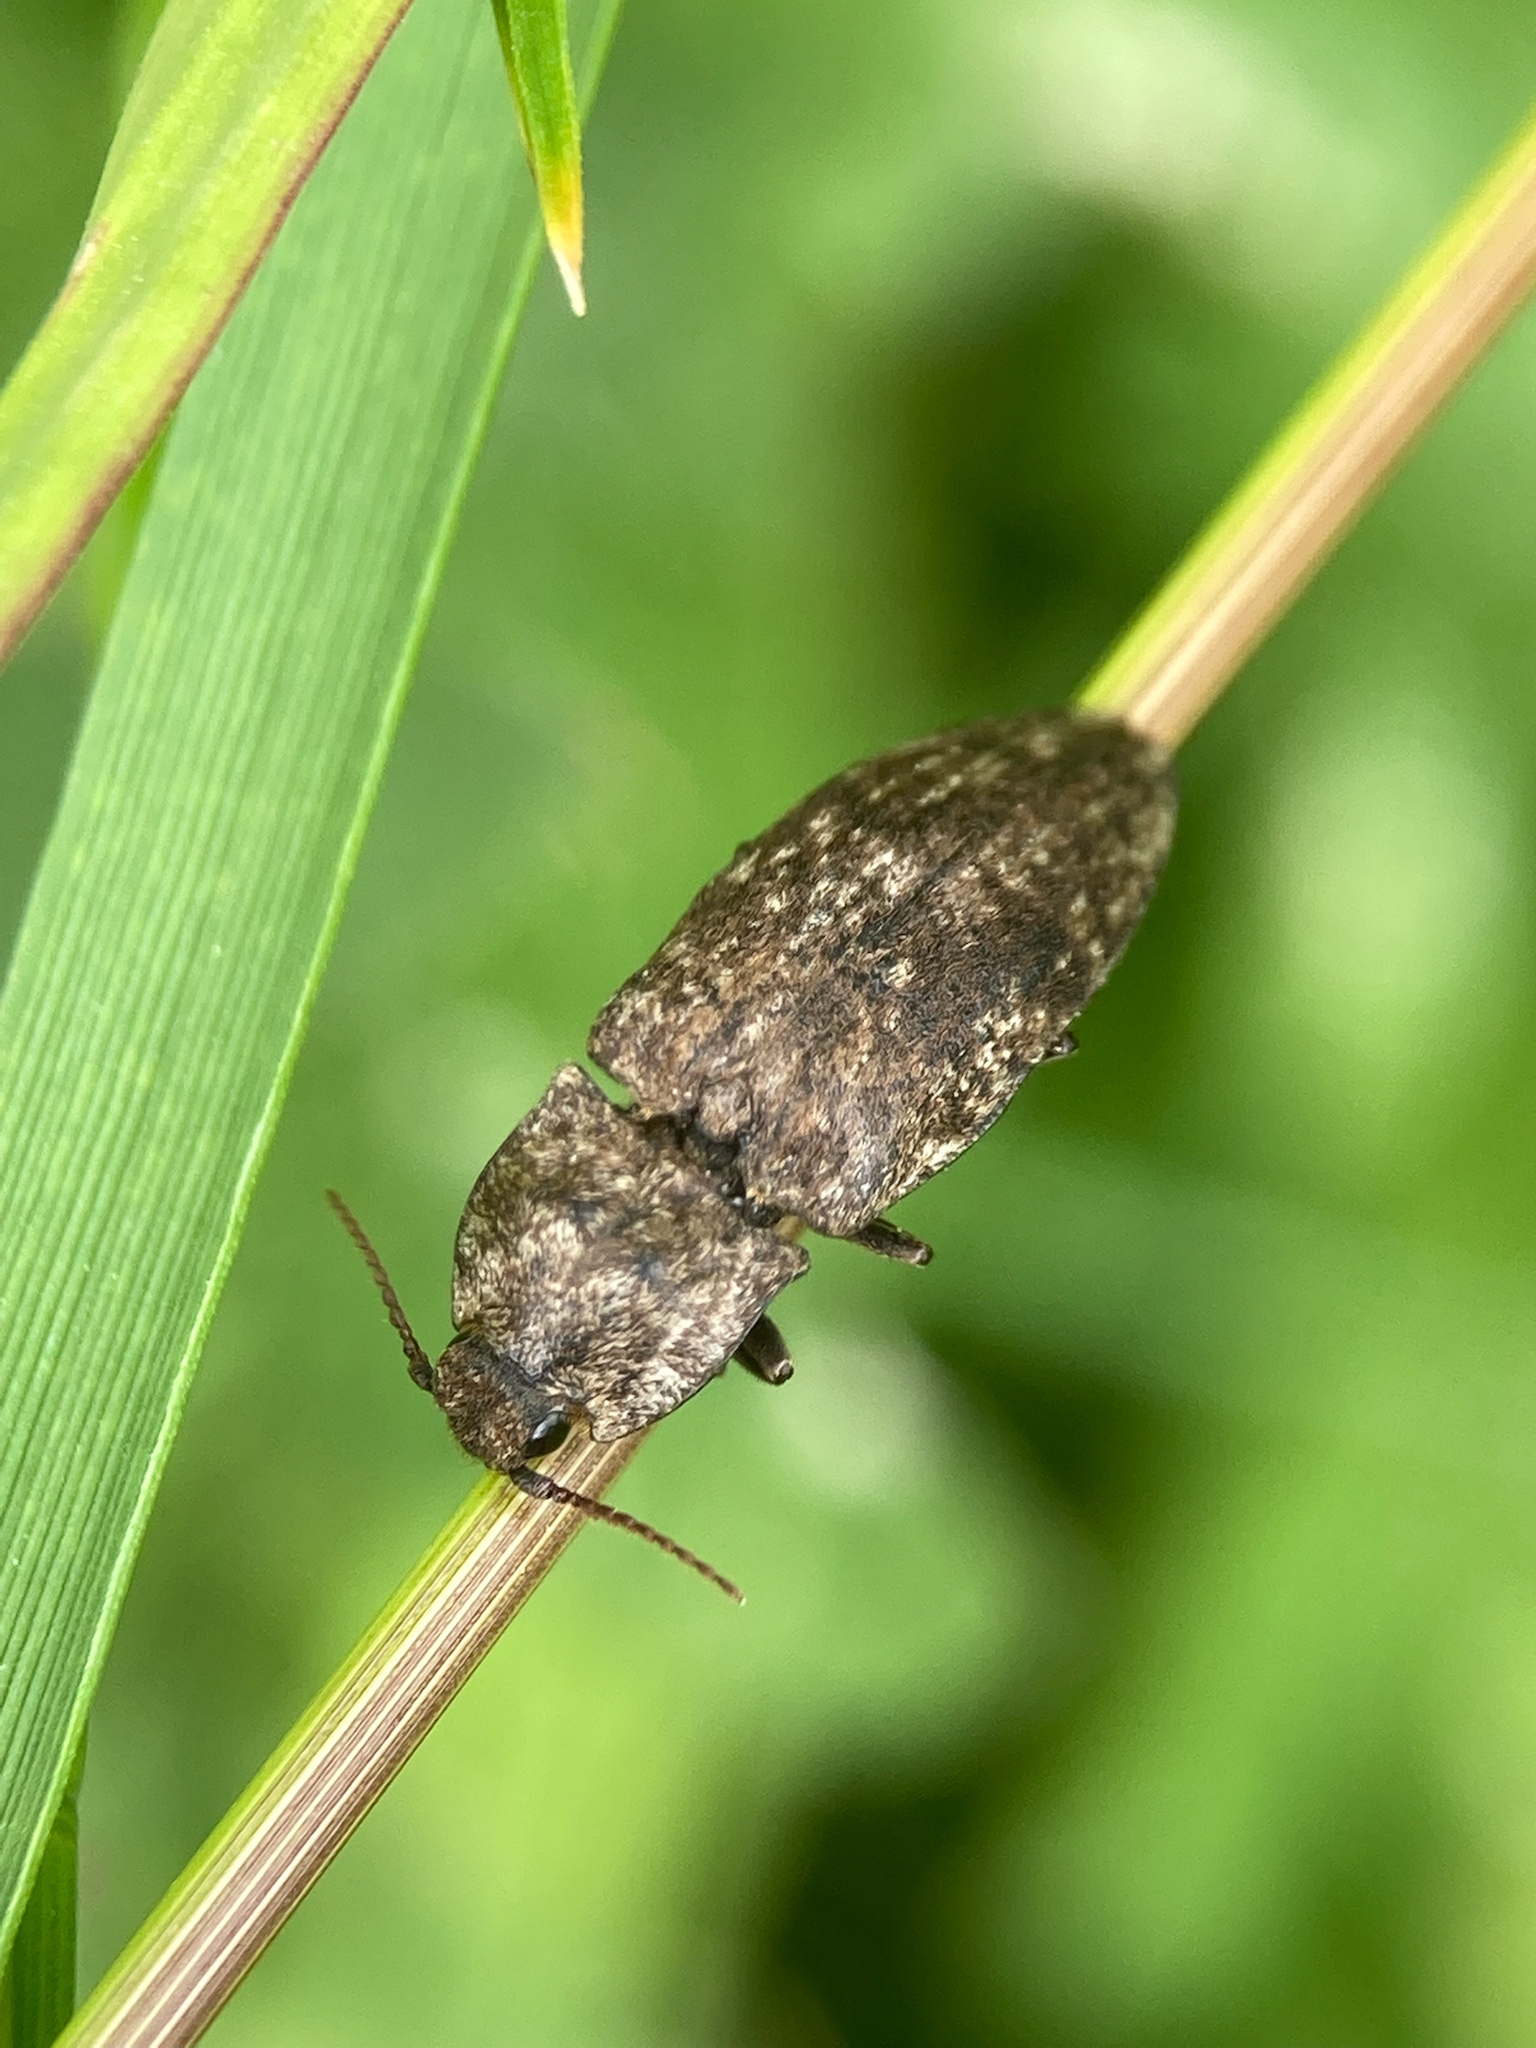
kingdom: Animalia
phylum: Arthropoda
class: Insecta
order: Coleoptera
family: Elateridae
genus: Agrypnus
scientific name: Agrypnus murinus
